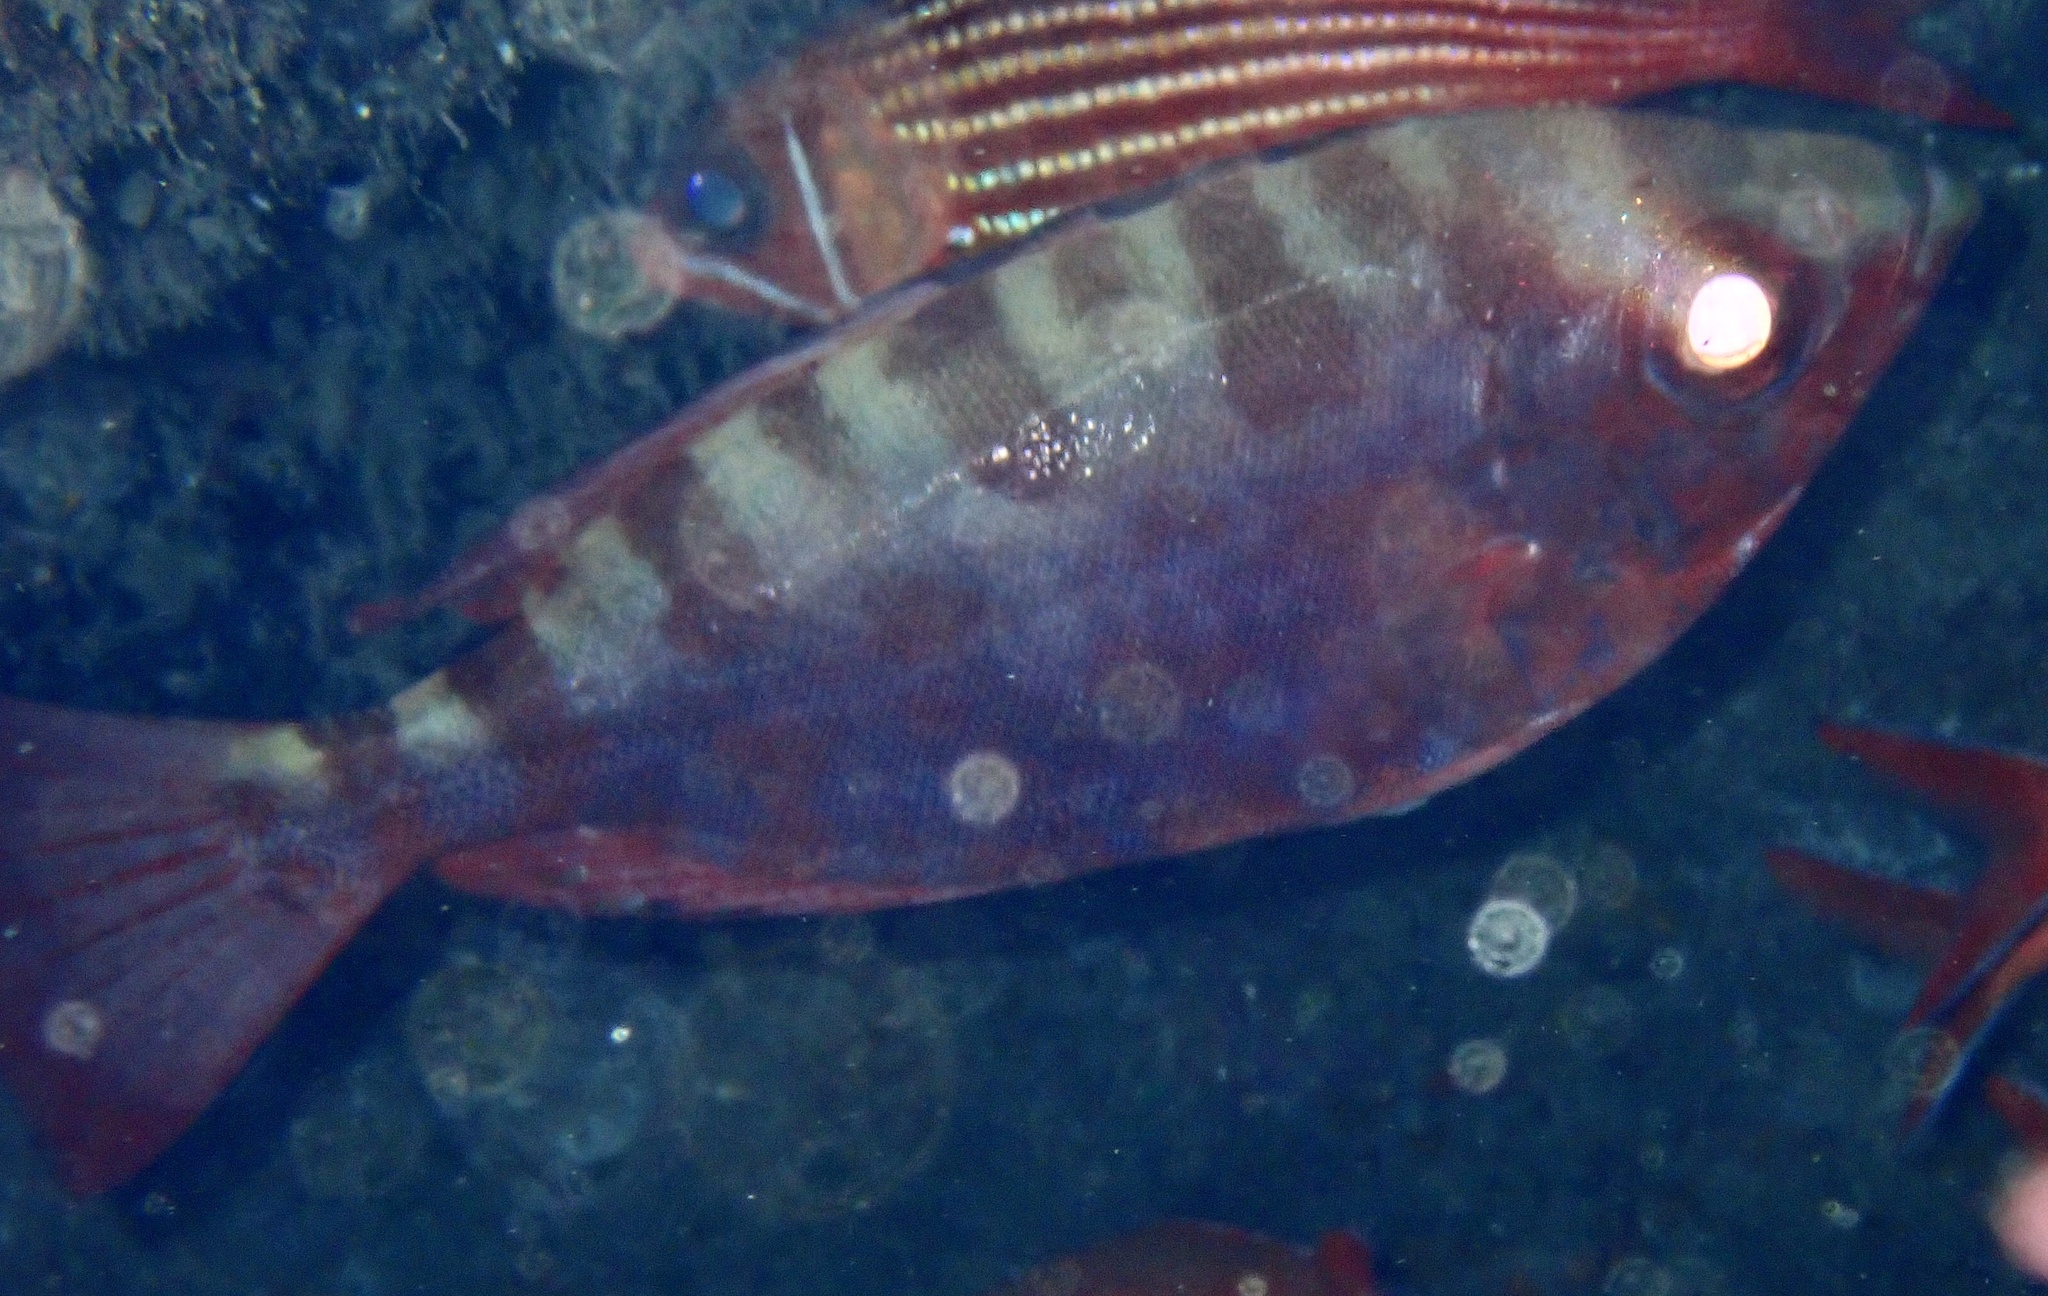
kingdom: Animalia
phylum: Chordata
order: Perciformes
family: Priacanthidae
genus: Heteropriacanthus
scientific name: Heteropriacanthus fulgens
